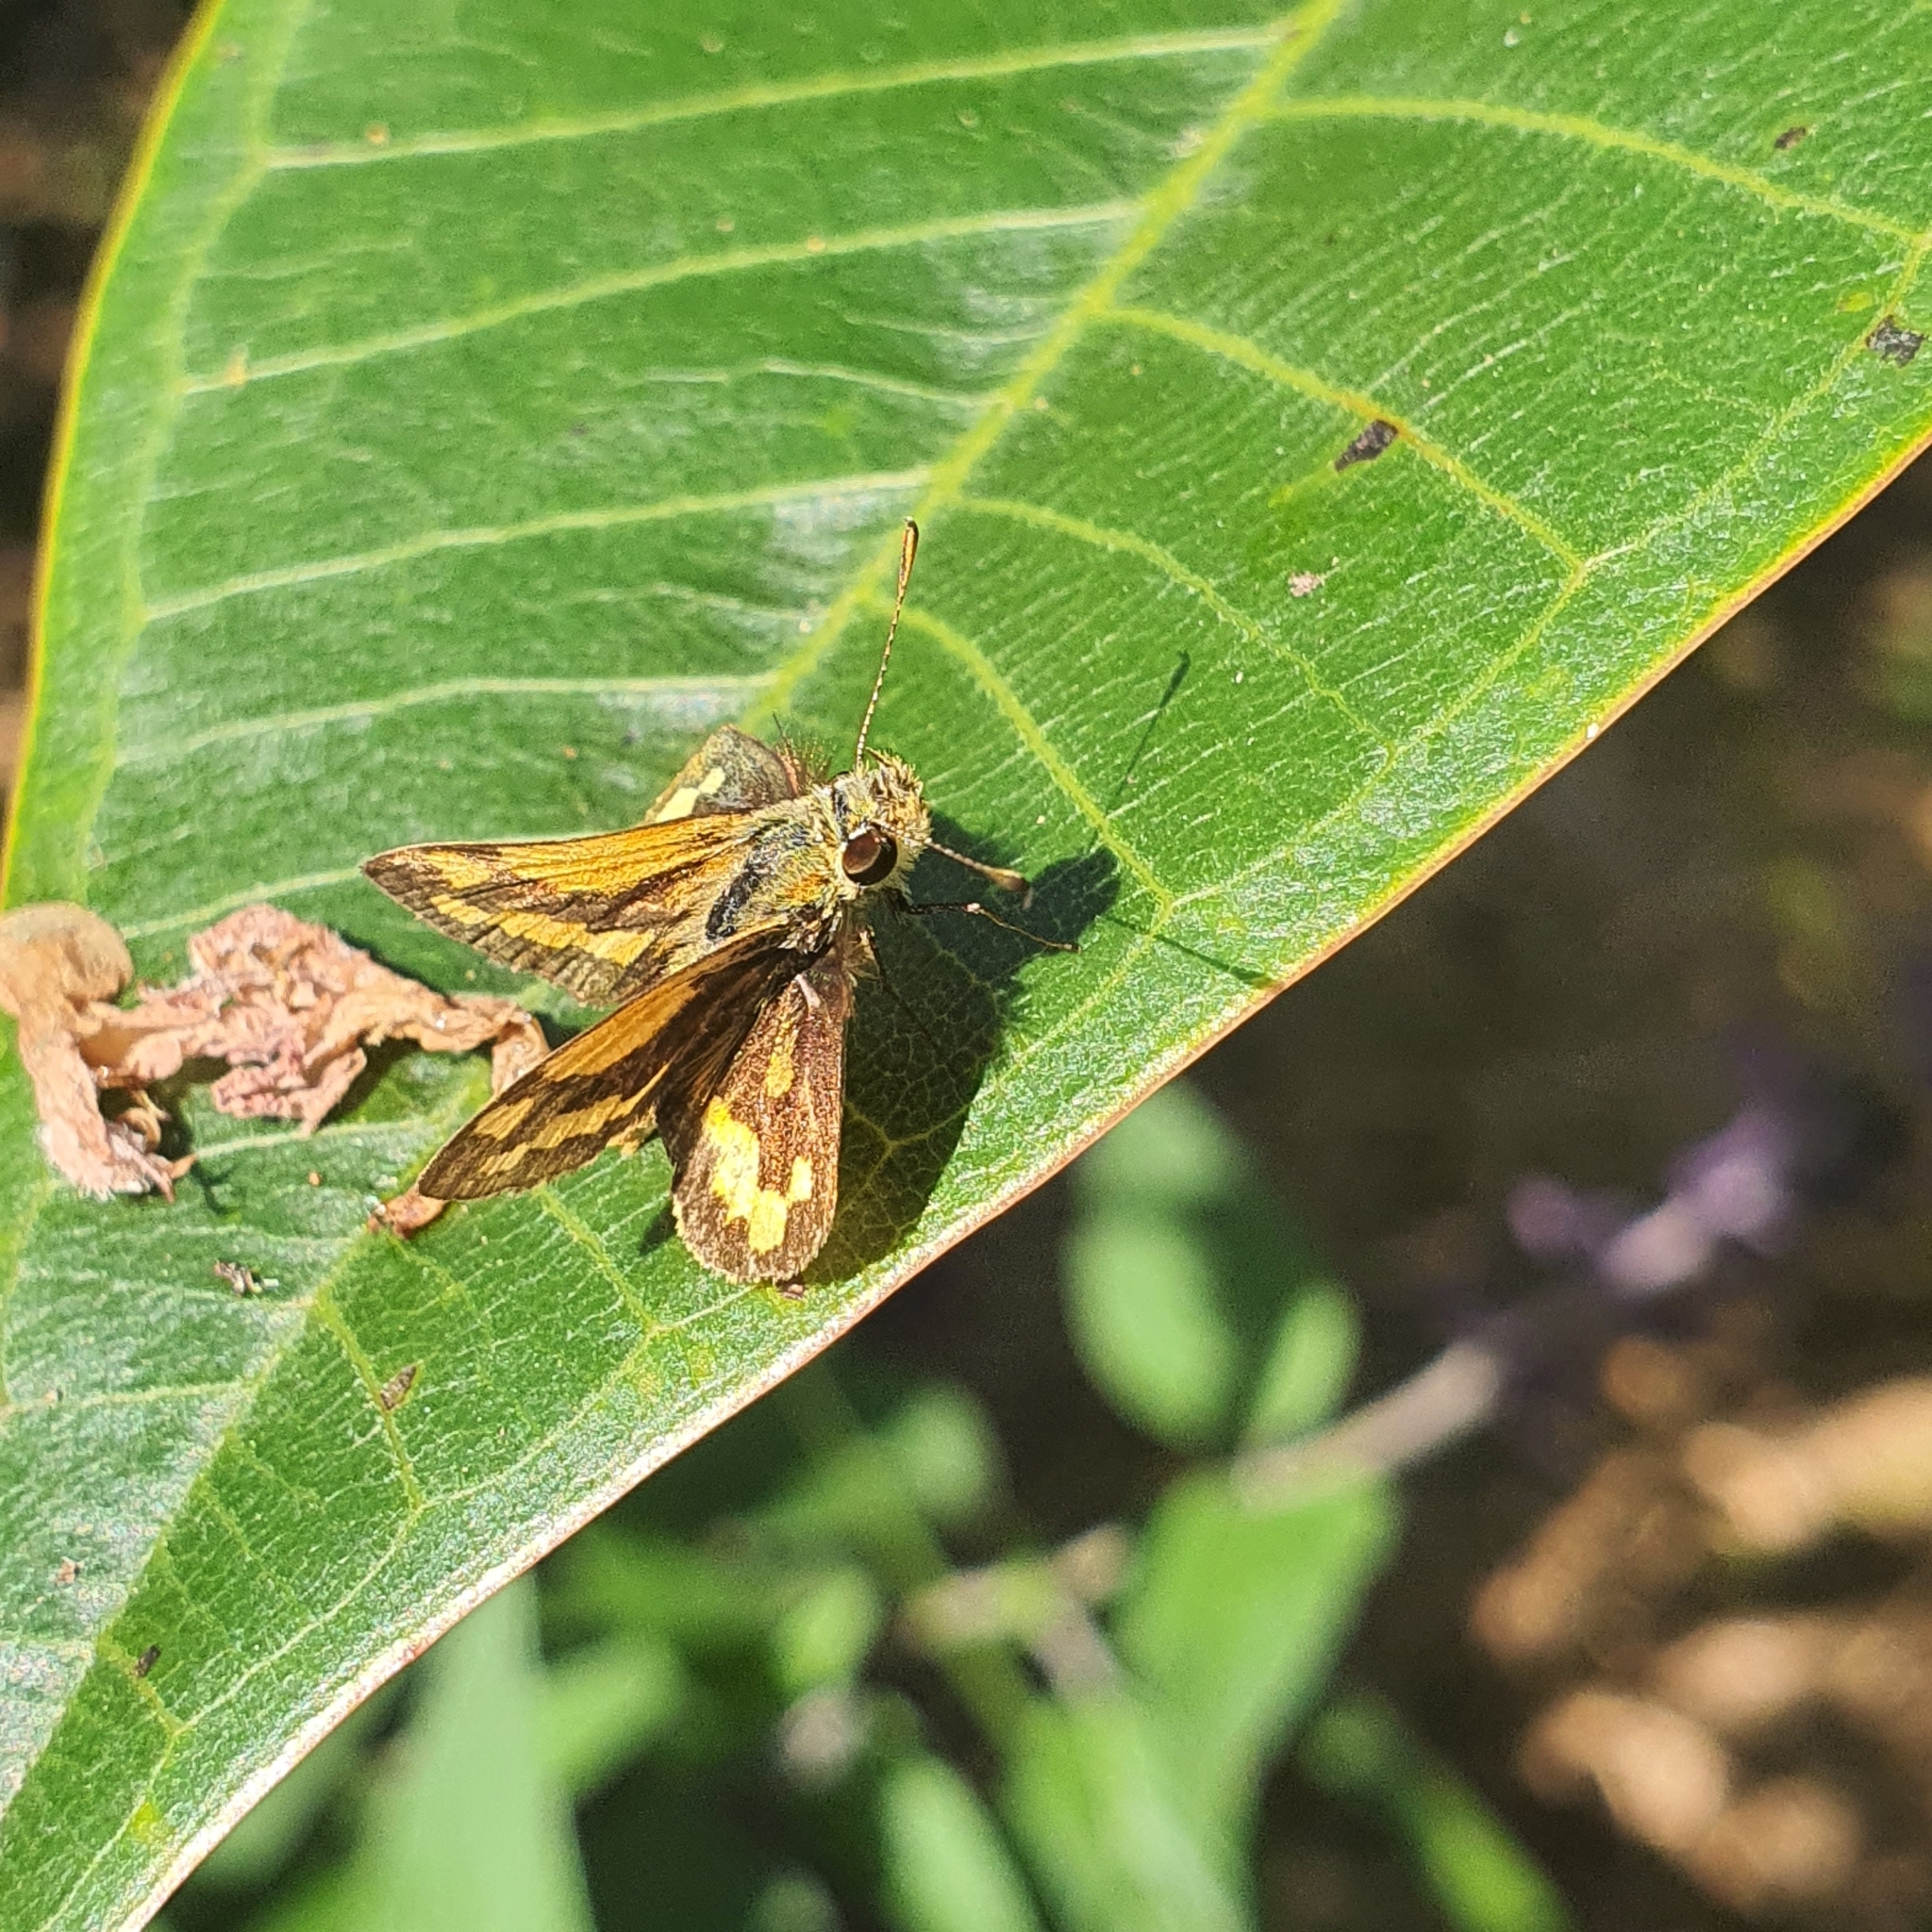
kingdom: Animalia
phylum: Arthropoda
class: Insecta
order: Lepidoptera
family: Hesperiidae
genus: Ocybadistes
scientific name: Ocybadistes walkeri
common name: Yellow-banded dart
